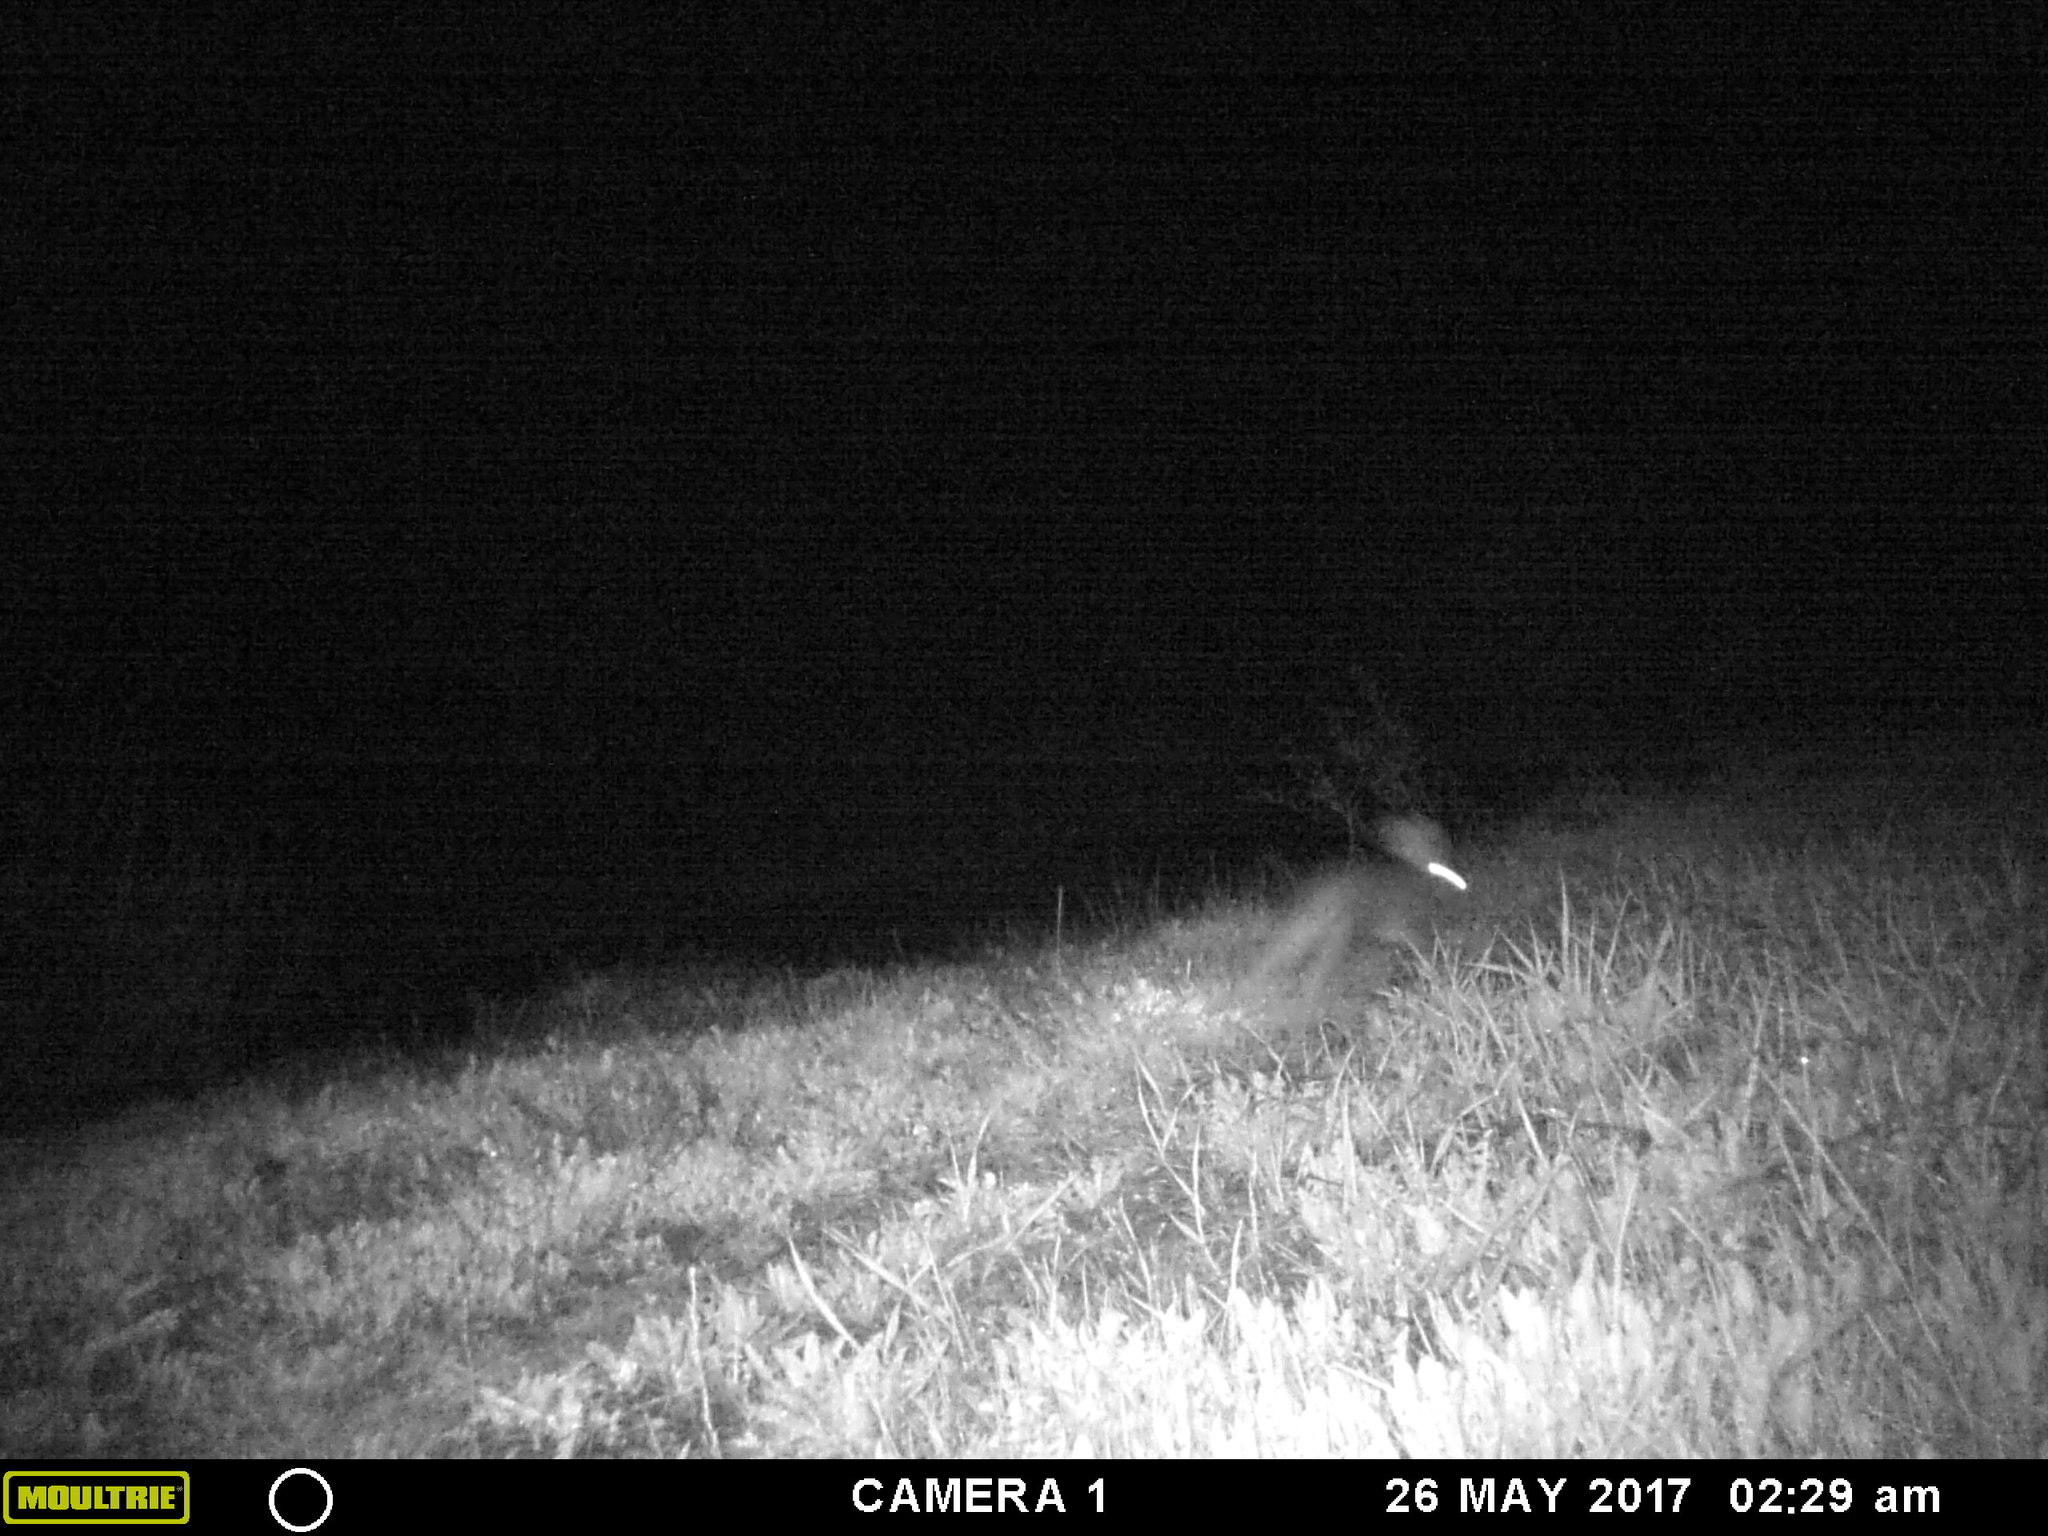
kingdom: Animalia
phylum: Chordata
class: Mammalia
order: Lagomorpha
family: Leporidae
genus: Lepus
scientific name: Lepus americanus
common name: Snowshoe hare
